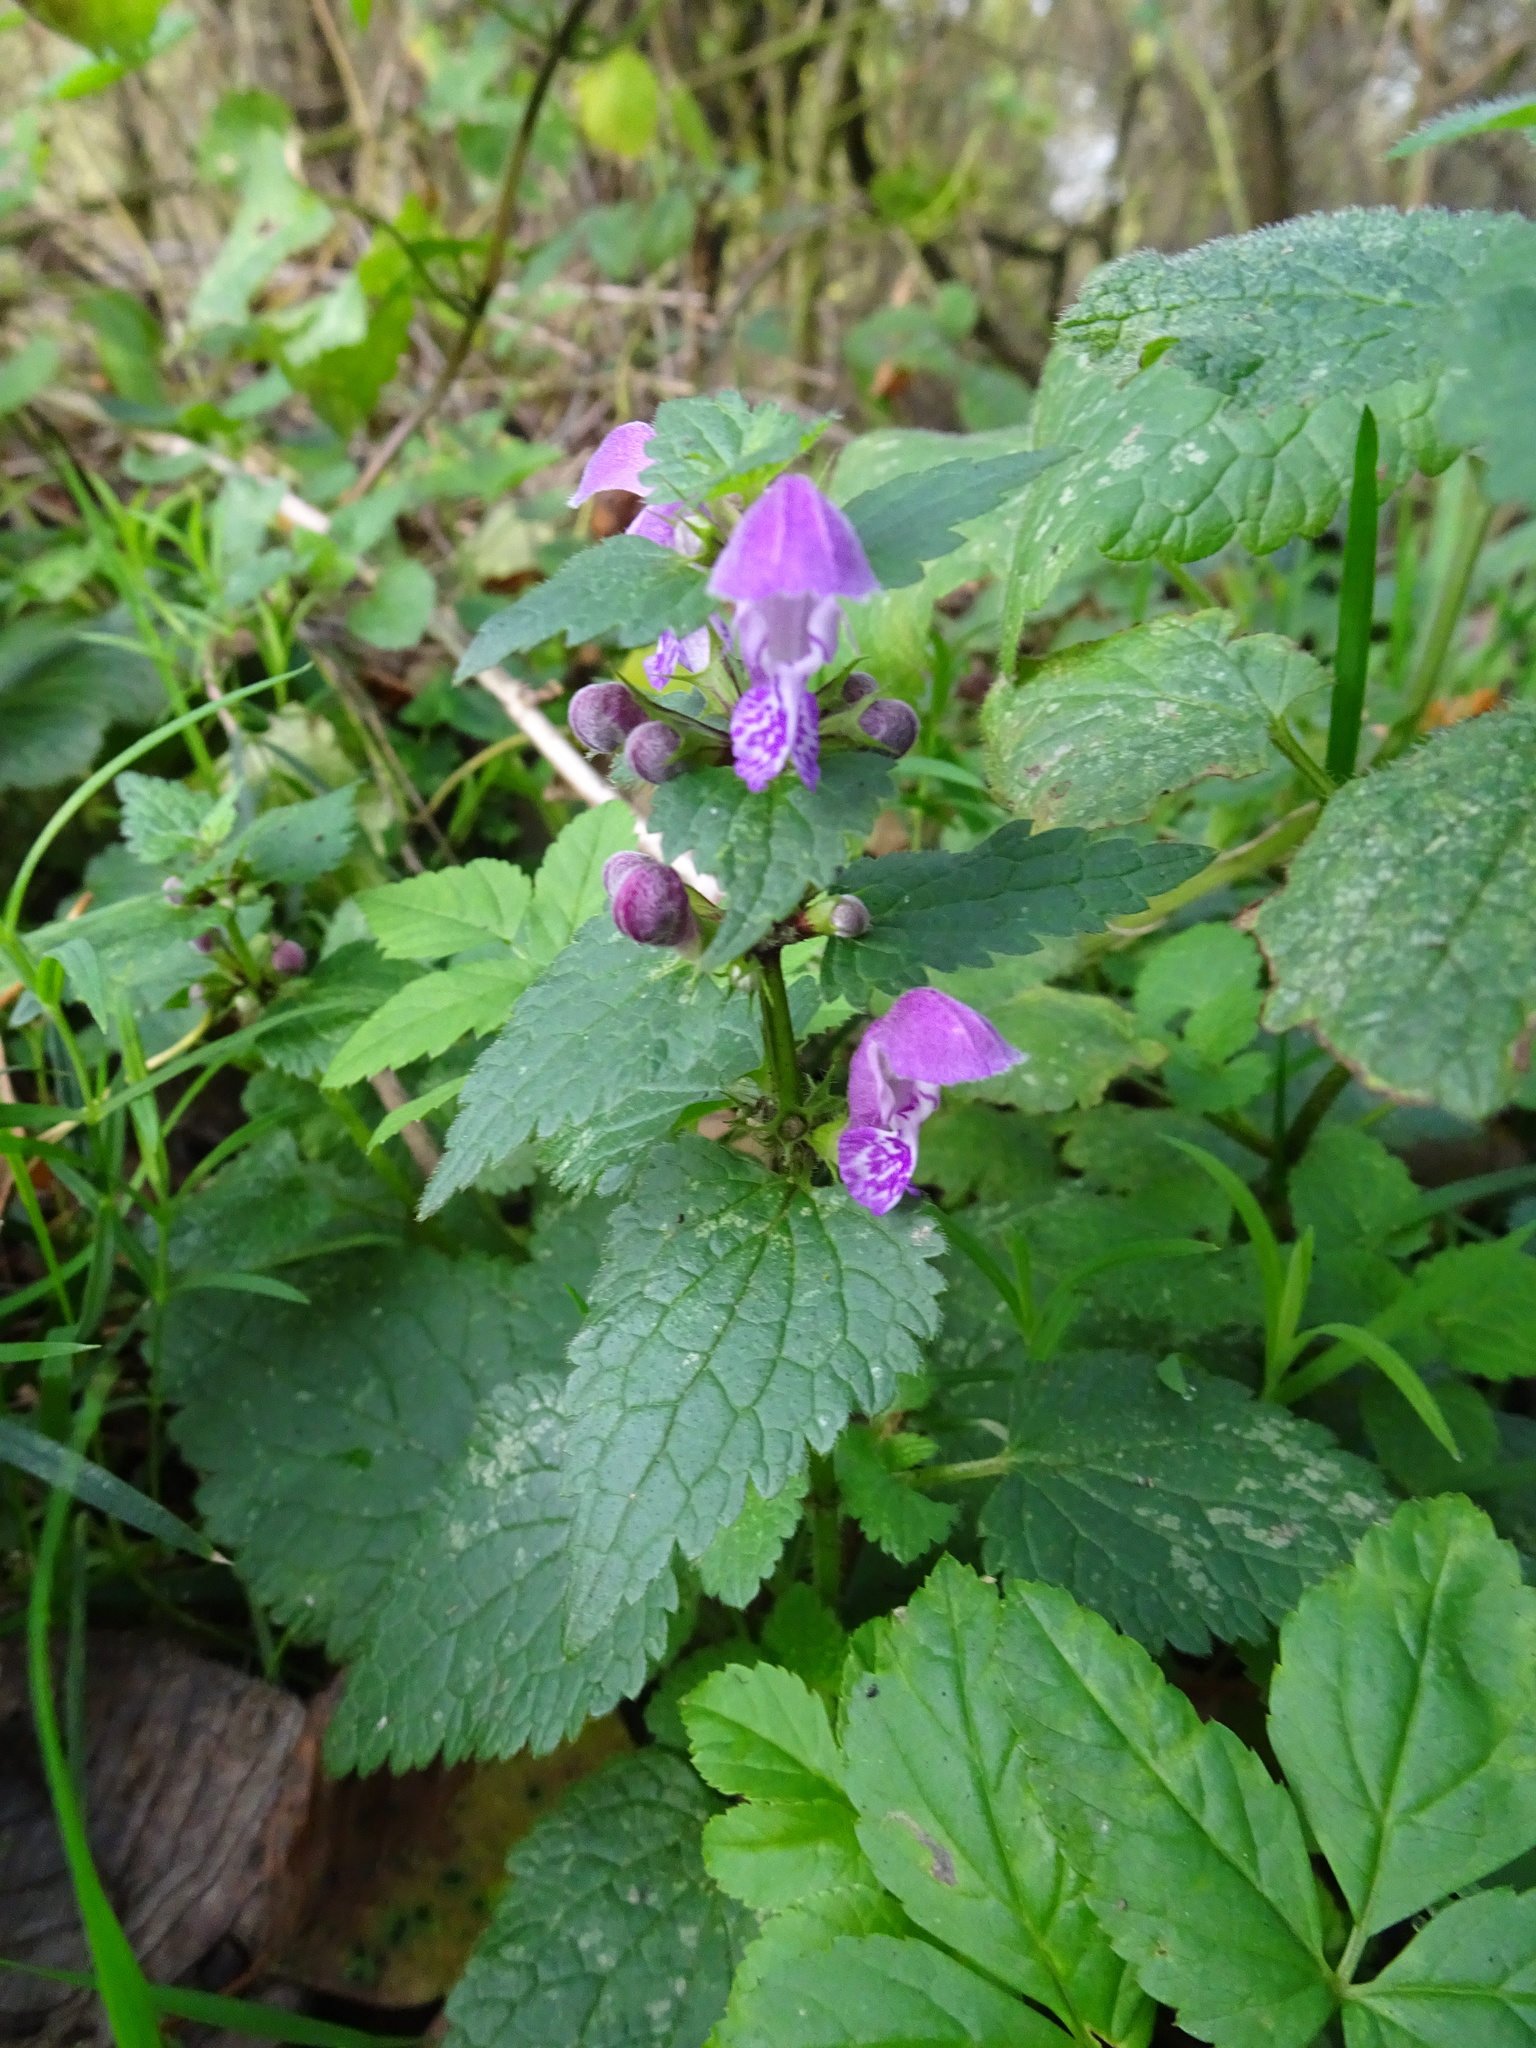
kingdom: Plantae
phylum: Tracheophyta
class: Magnoliopsida
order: Lamiales
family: Lamiaceae
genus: Lamium
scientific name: Lamium maculatum
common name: Spotted dead-nettle
